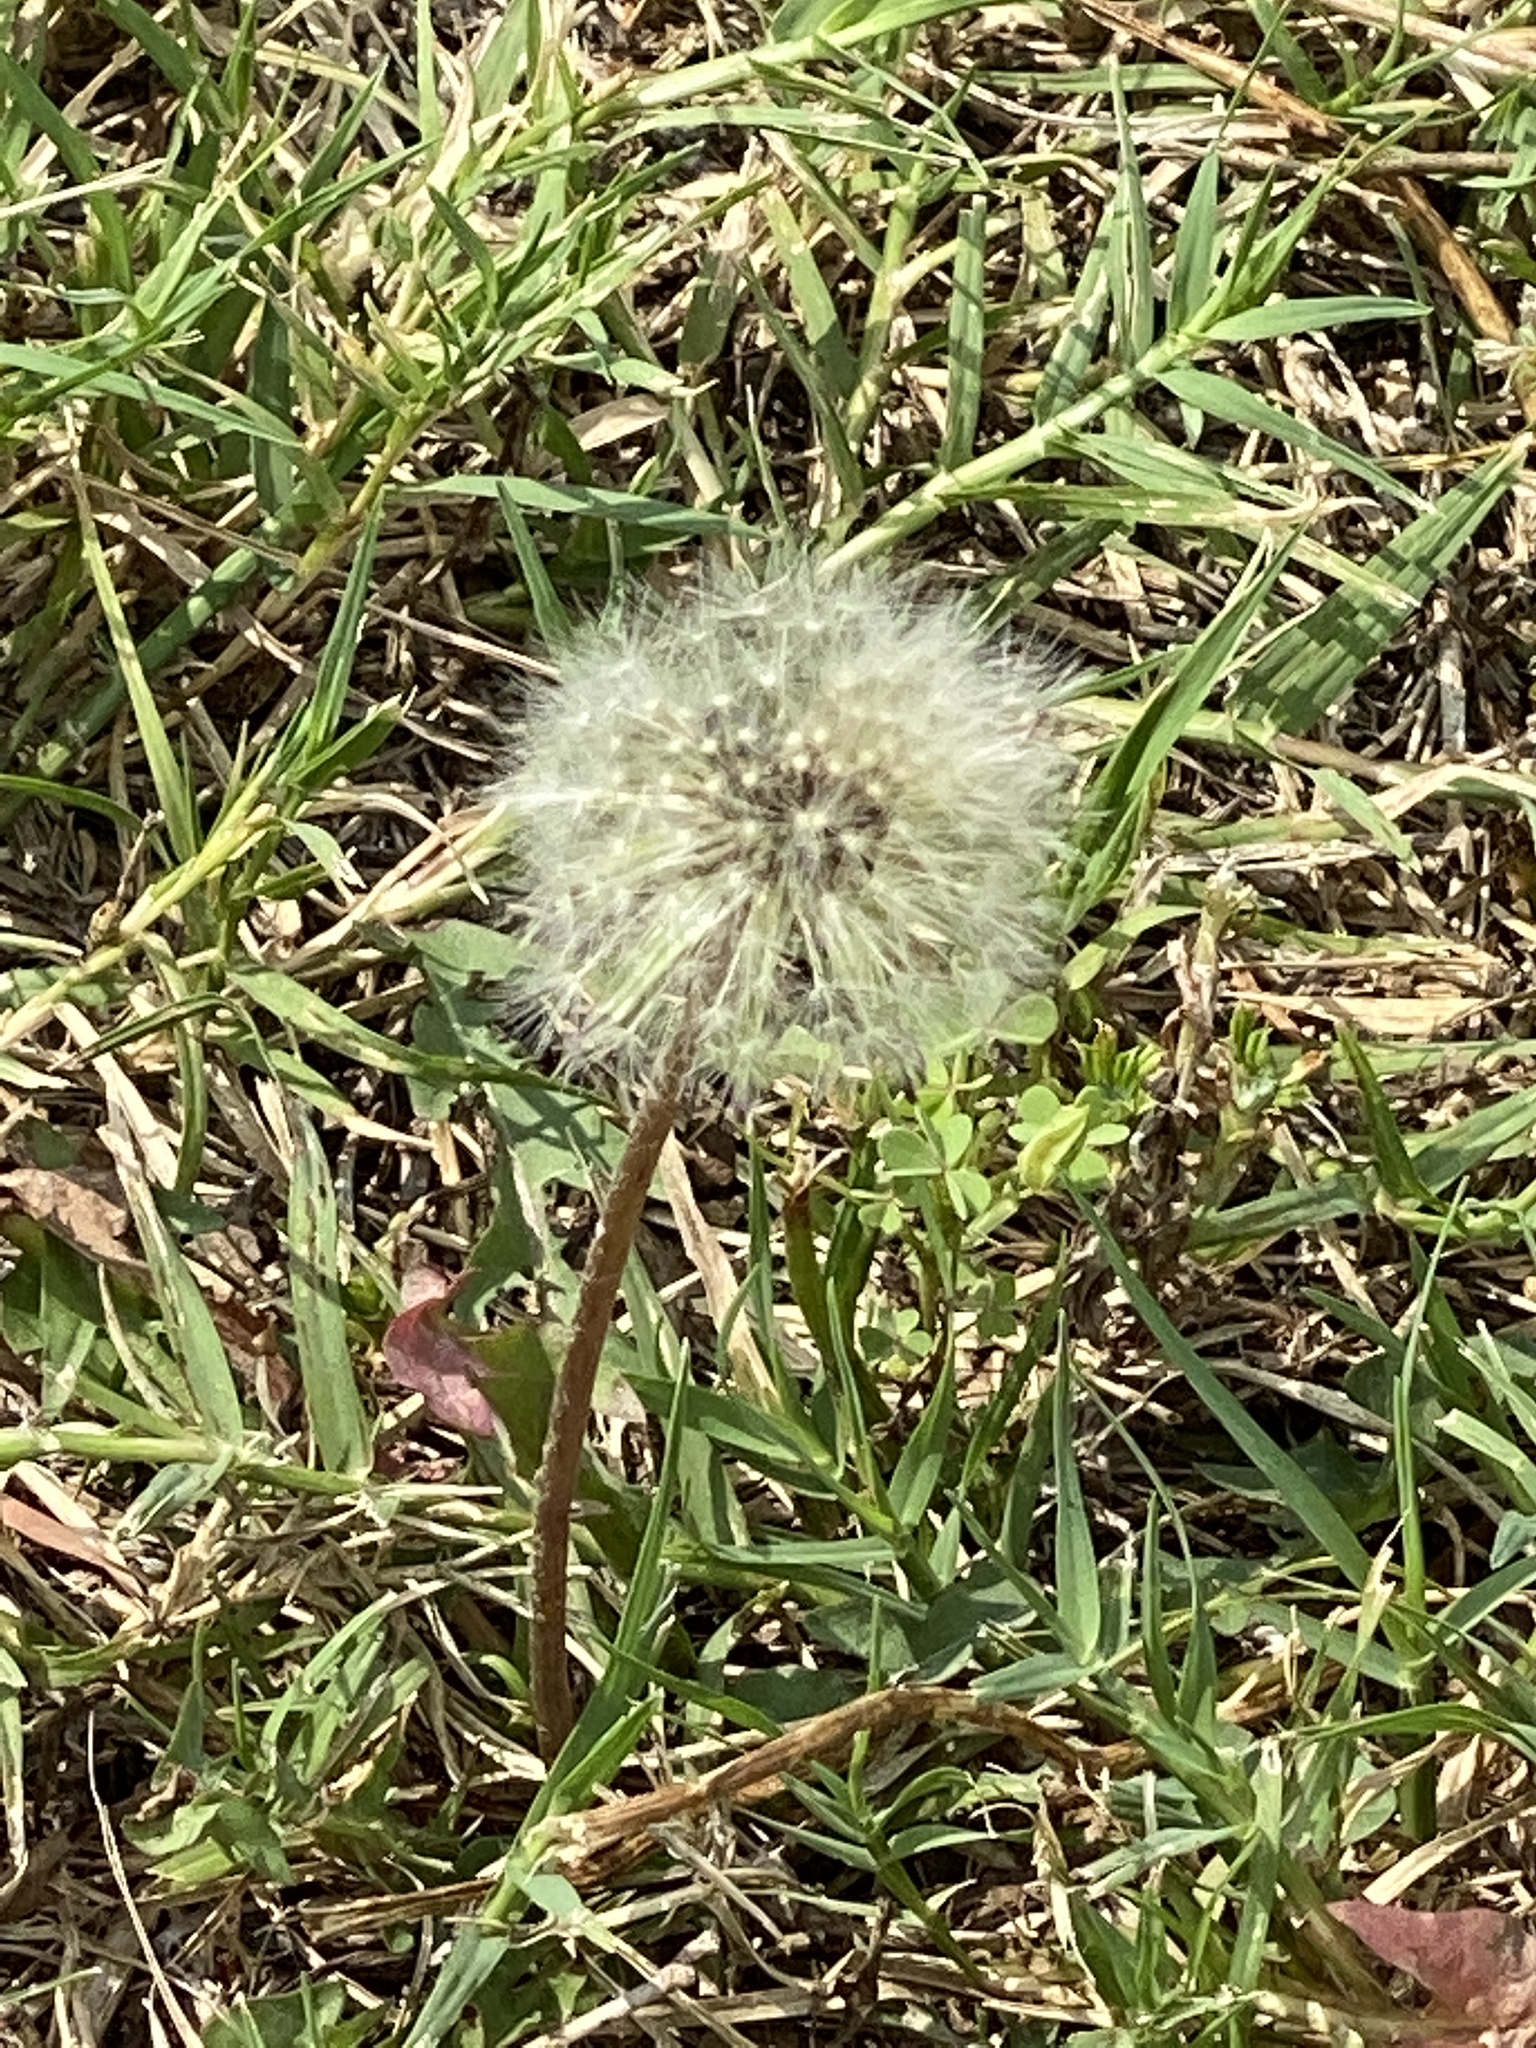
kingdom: Plantae
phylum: Tracheophyta
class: Magnoliopsida
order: Asterales
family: Asteraceae
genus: Taraxacum
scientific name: Taraxacum officinale
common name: Common dandelion
